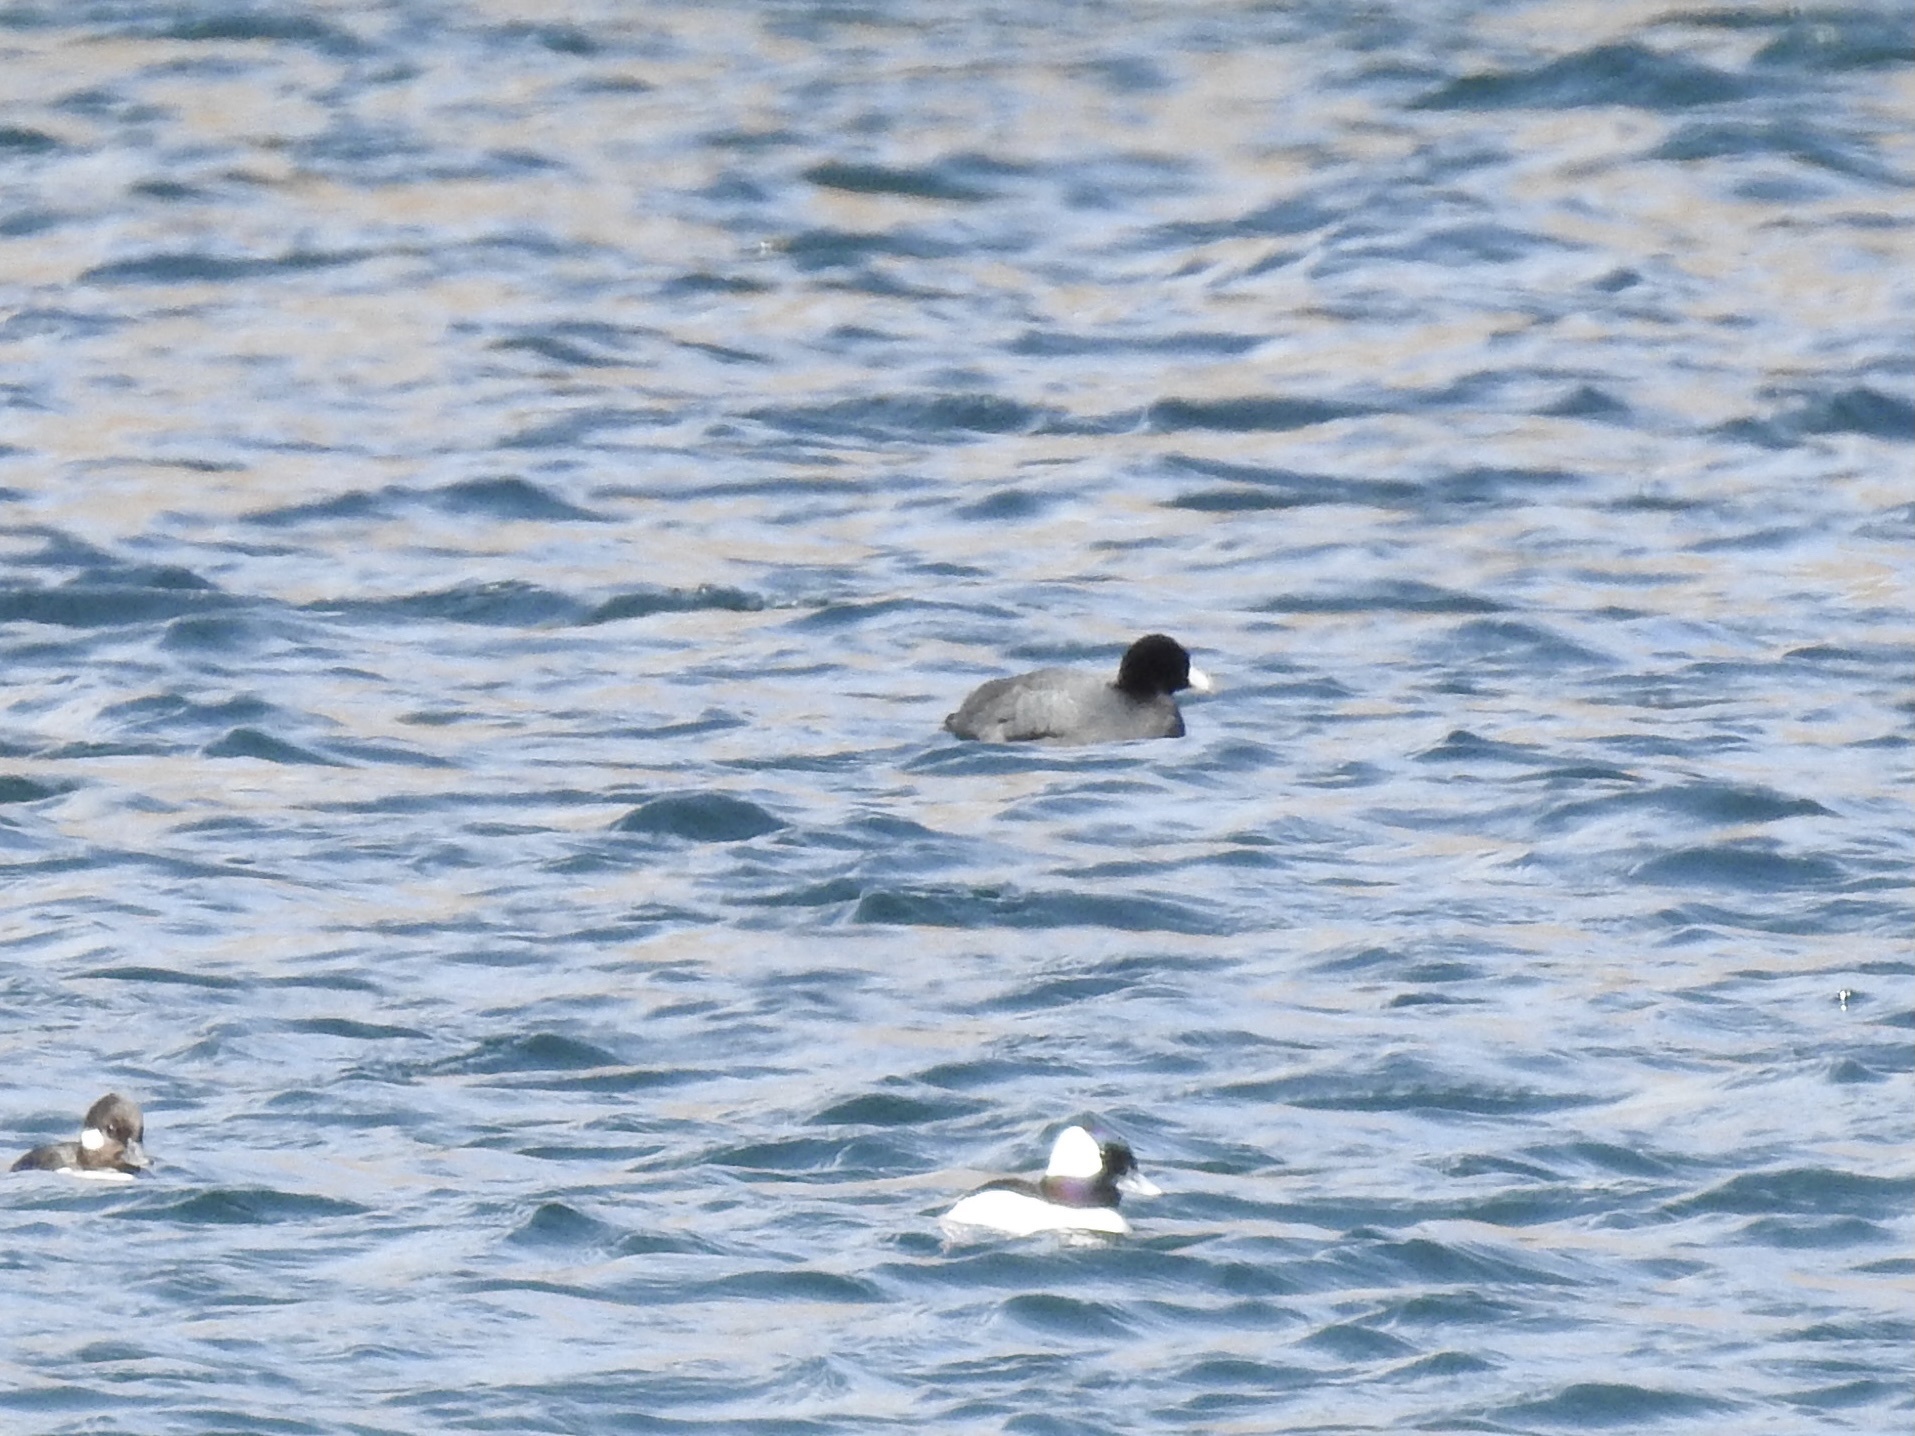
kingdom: Animalia
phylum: Chordata
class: Aves
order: Gruiformes
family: Rallidae
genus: Fulica
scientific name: Fulica americana
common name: American coot
